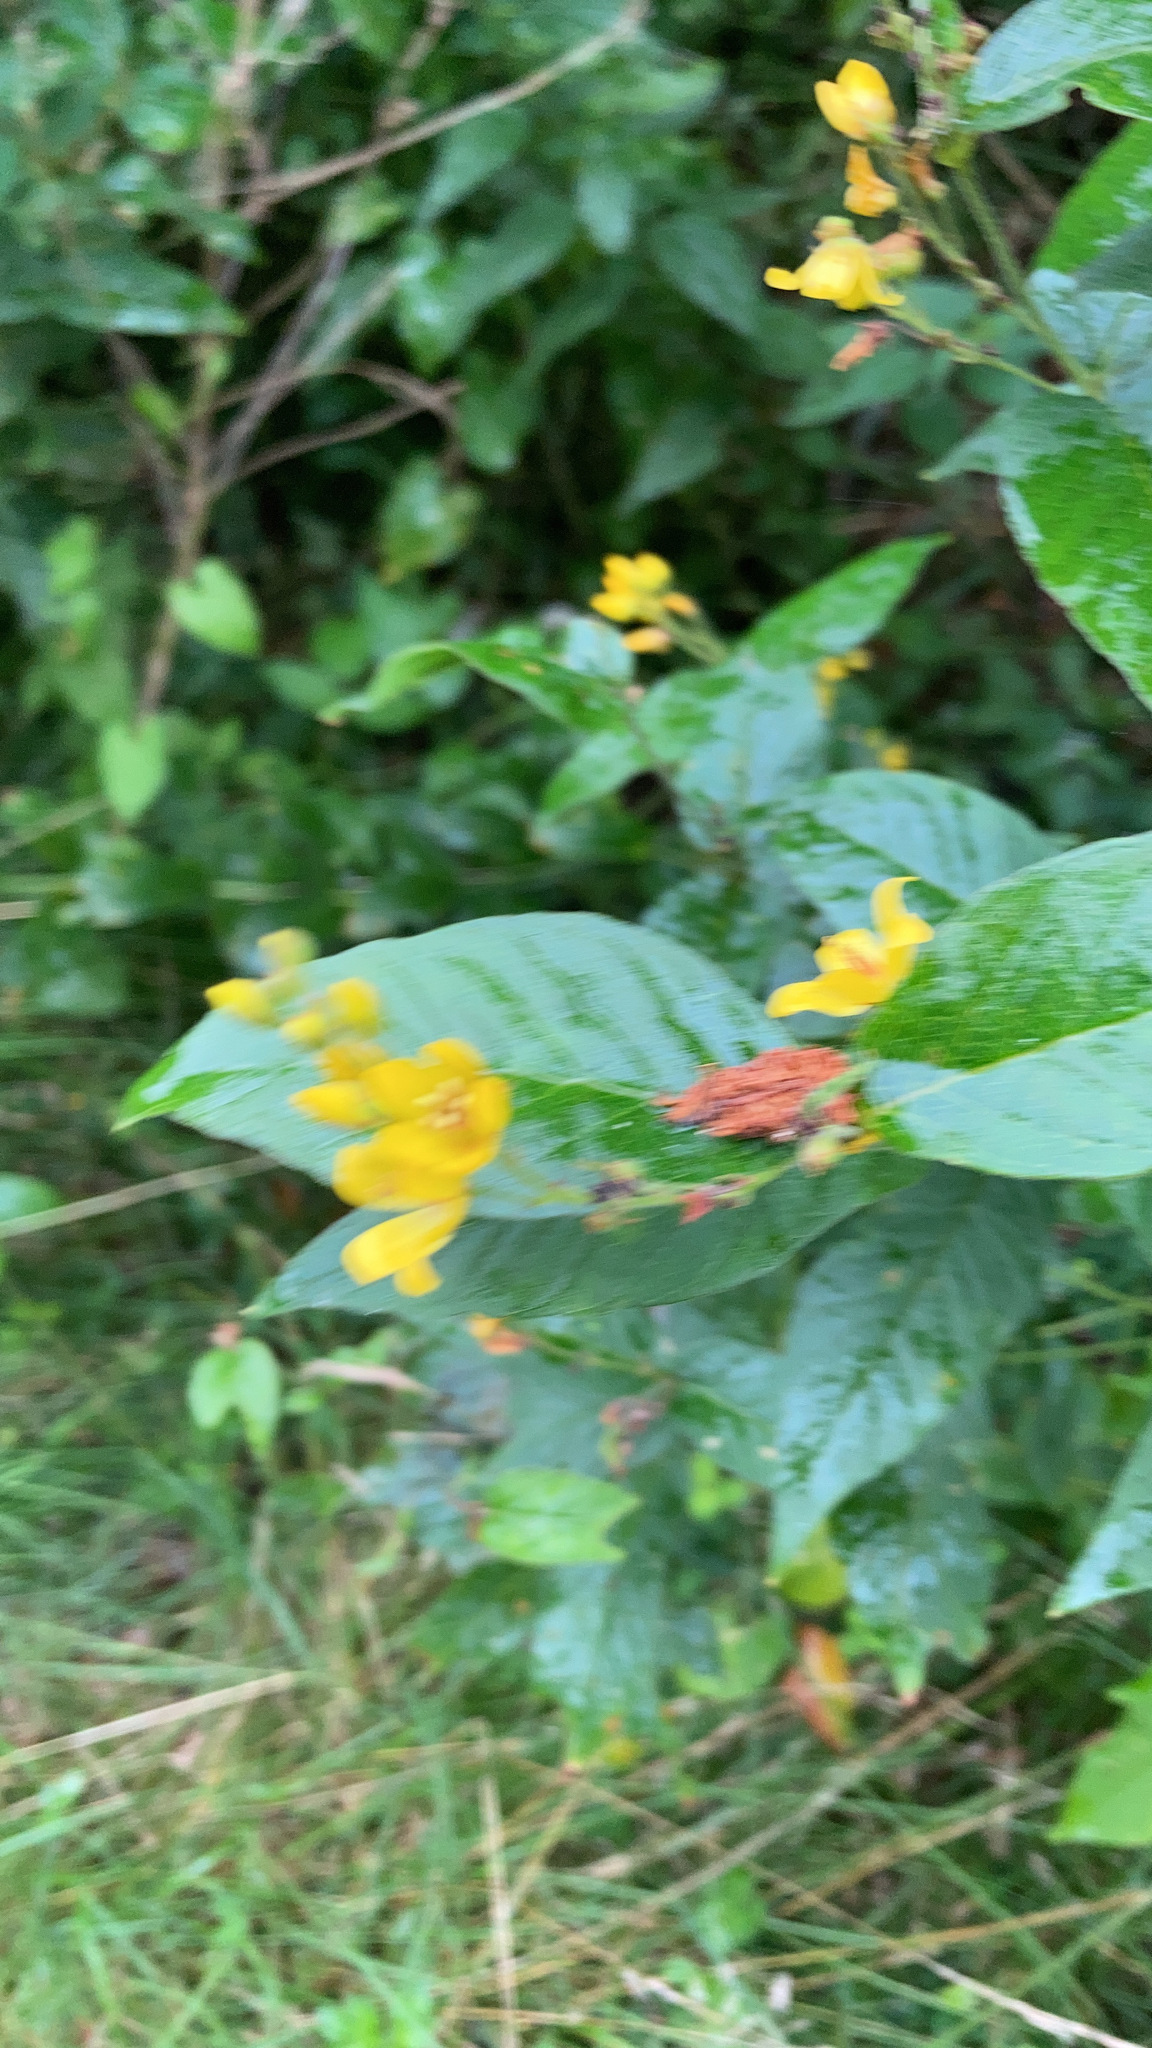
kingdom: Plantae
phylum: Tracheophyta
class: Magnoliopsida
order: Ericales
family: Primulaceae
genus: Lysimachia
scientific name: Lysimachia vulgaris
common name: Yellow loosestrife
